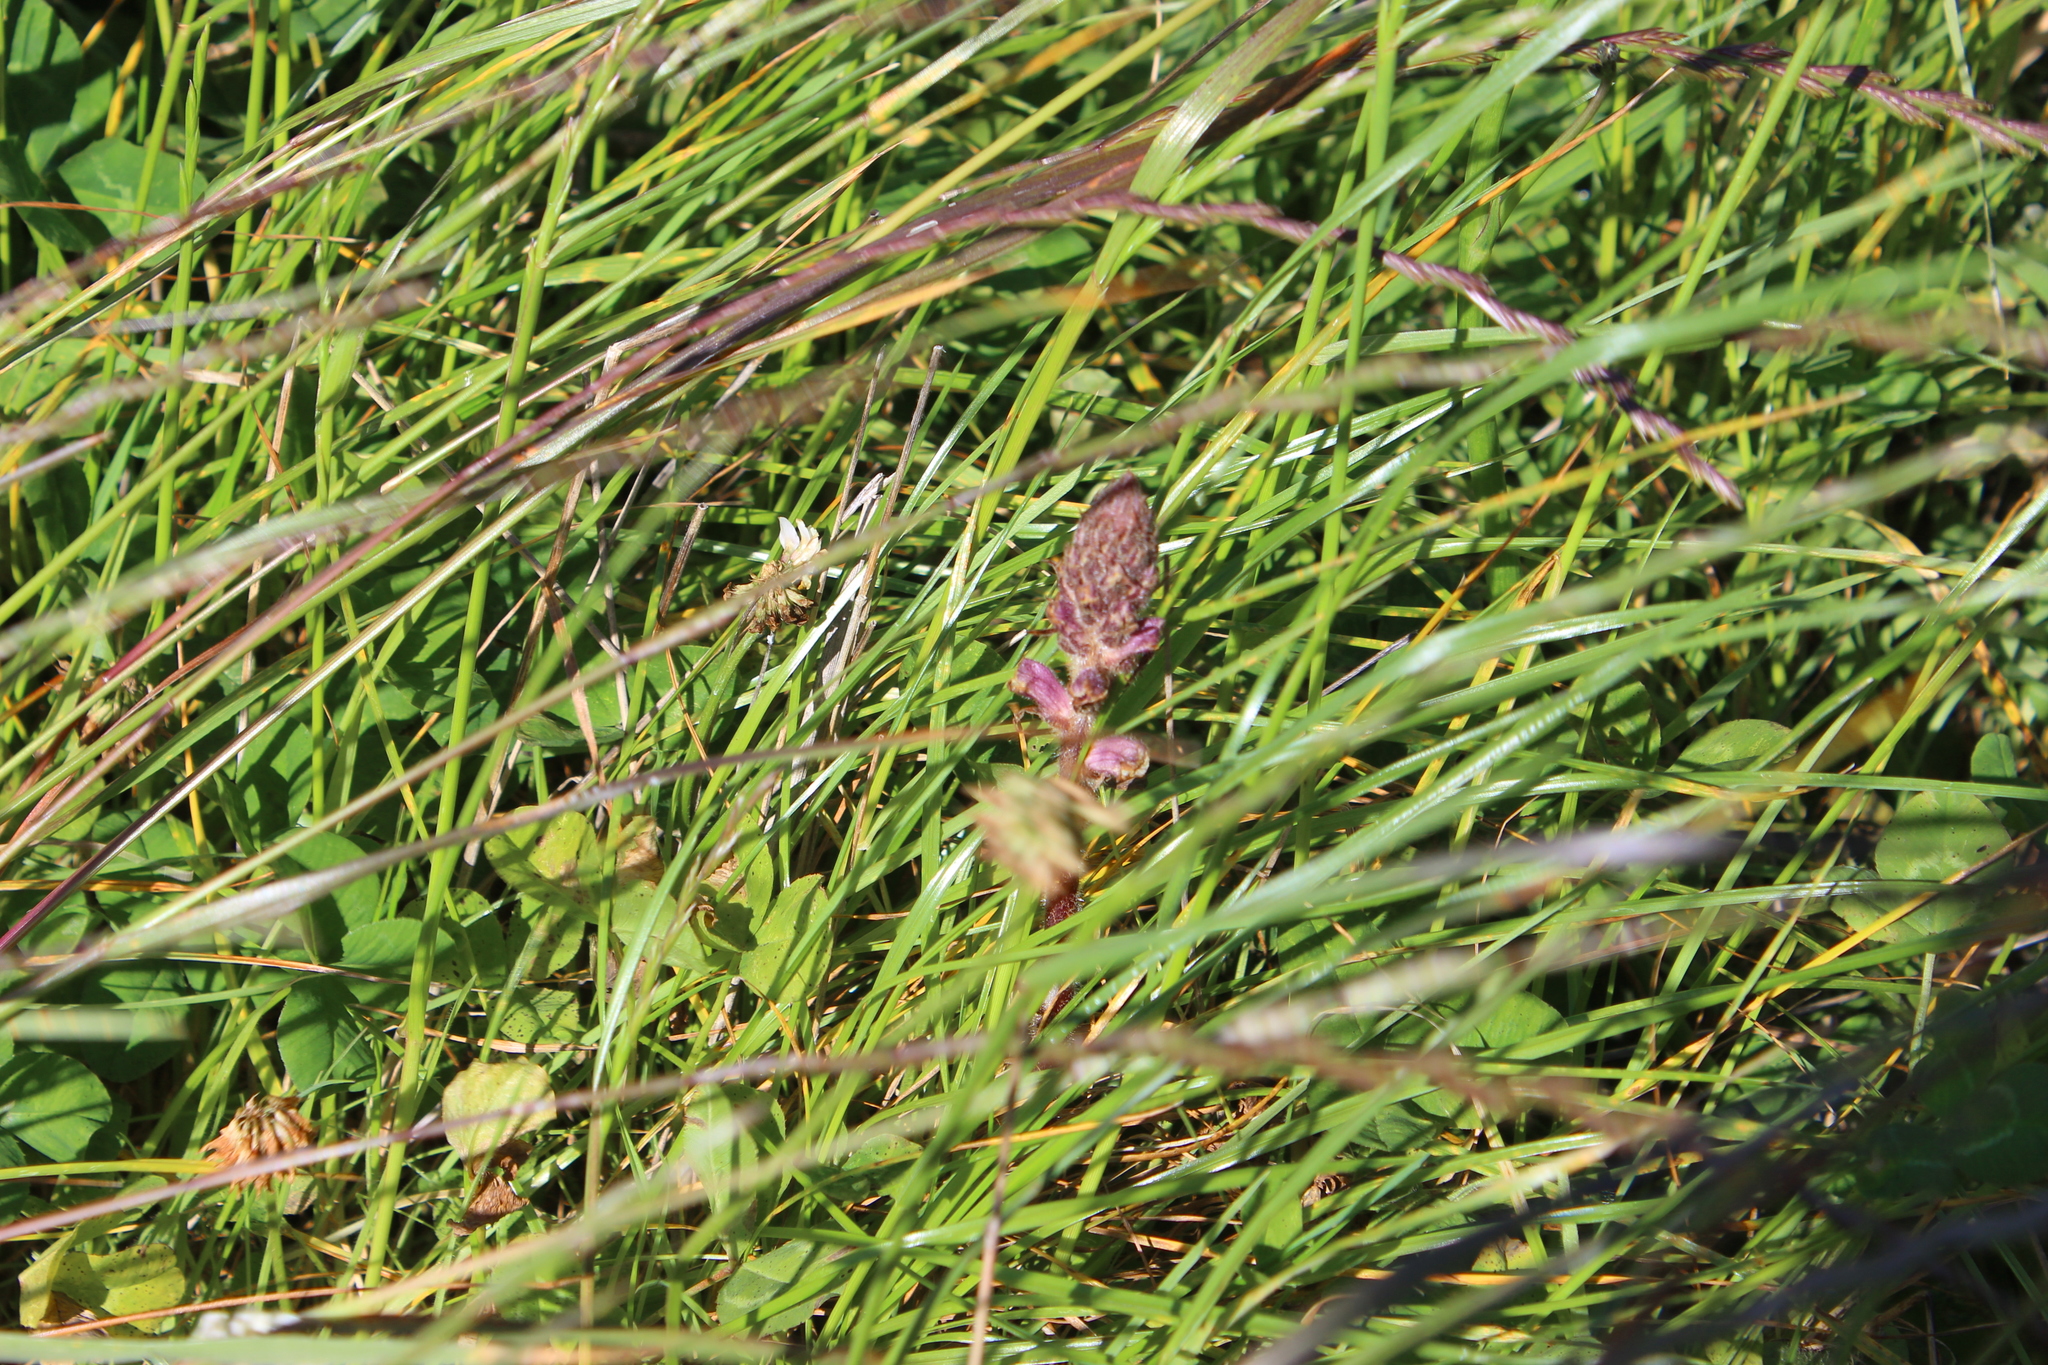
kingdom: Plantae
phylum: Tracheophyta
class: Magnoliopsida
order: Lamiales
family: Orobanchaceae
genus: Orobanche
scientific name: Orobanche minor
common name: Common broomrape
